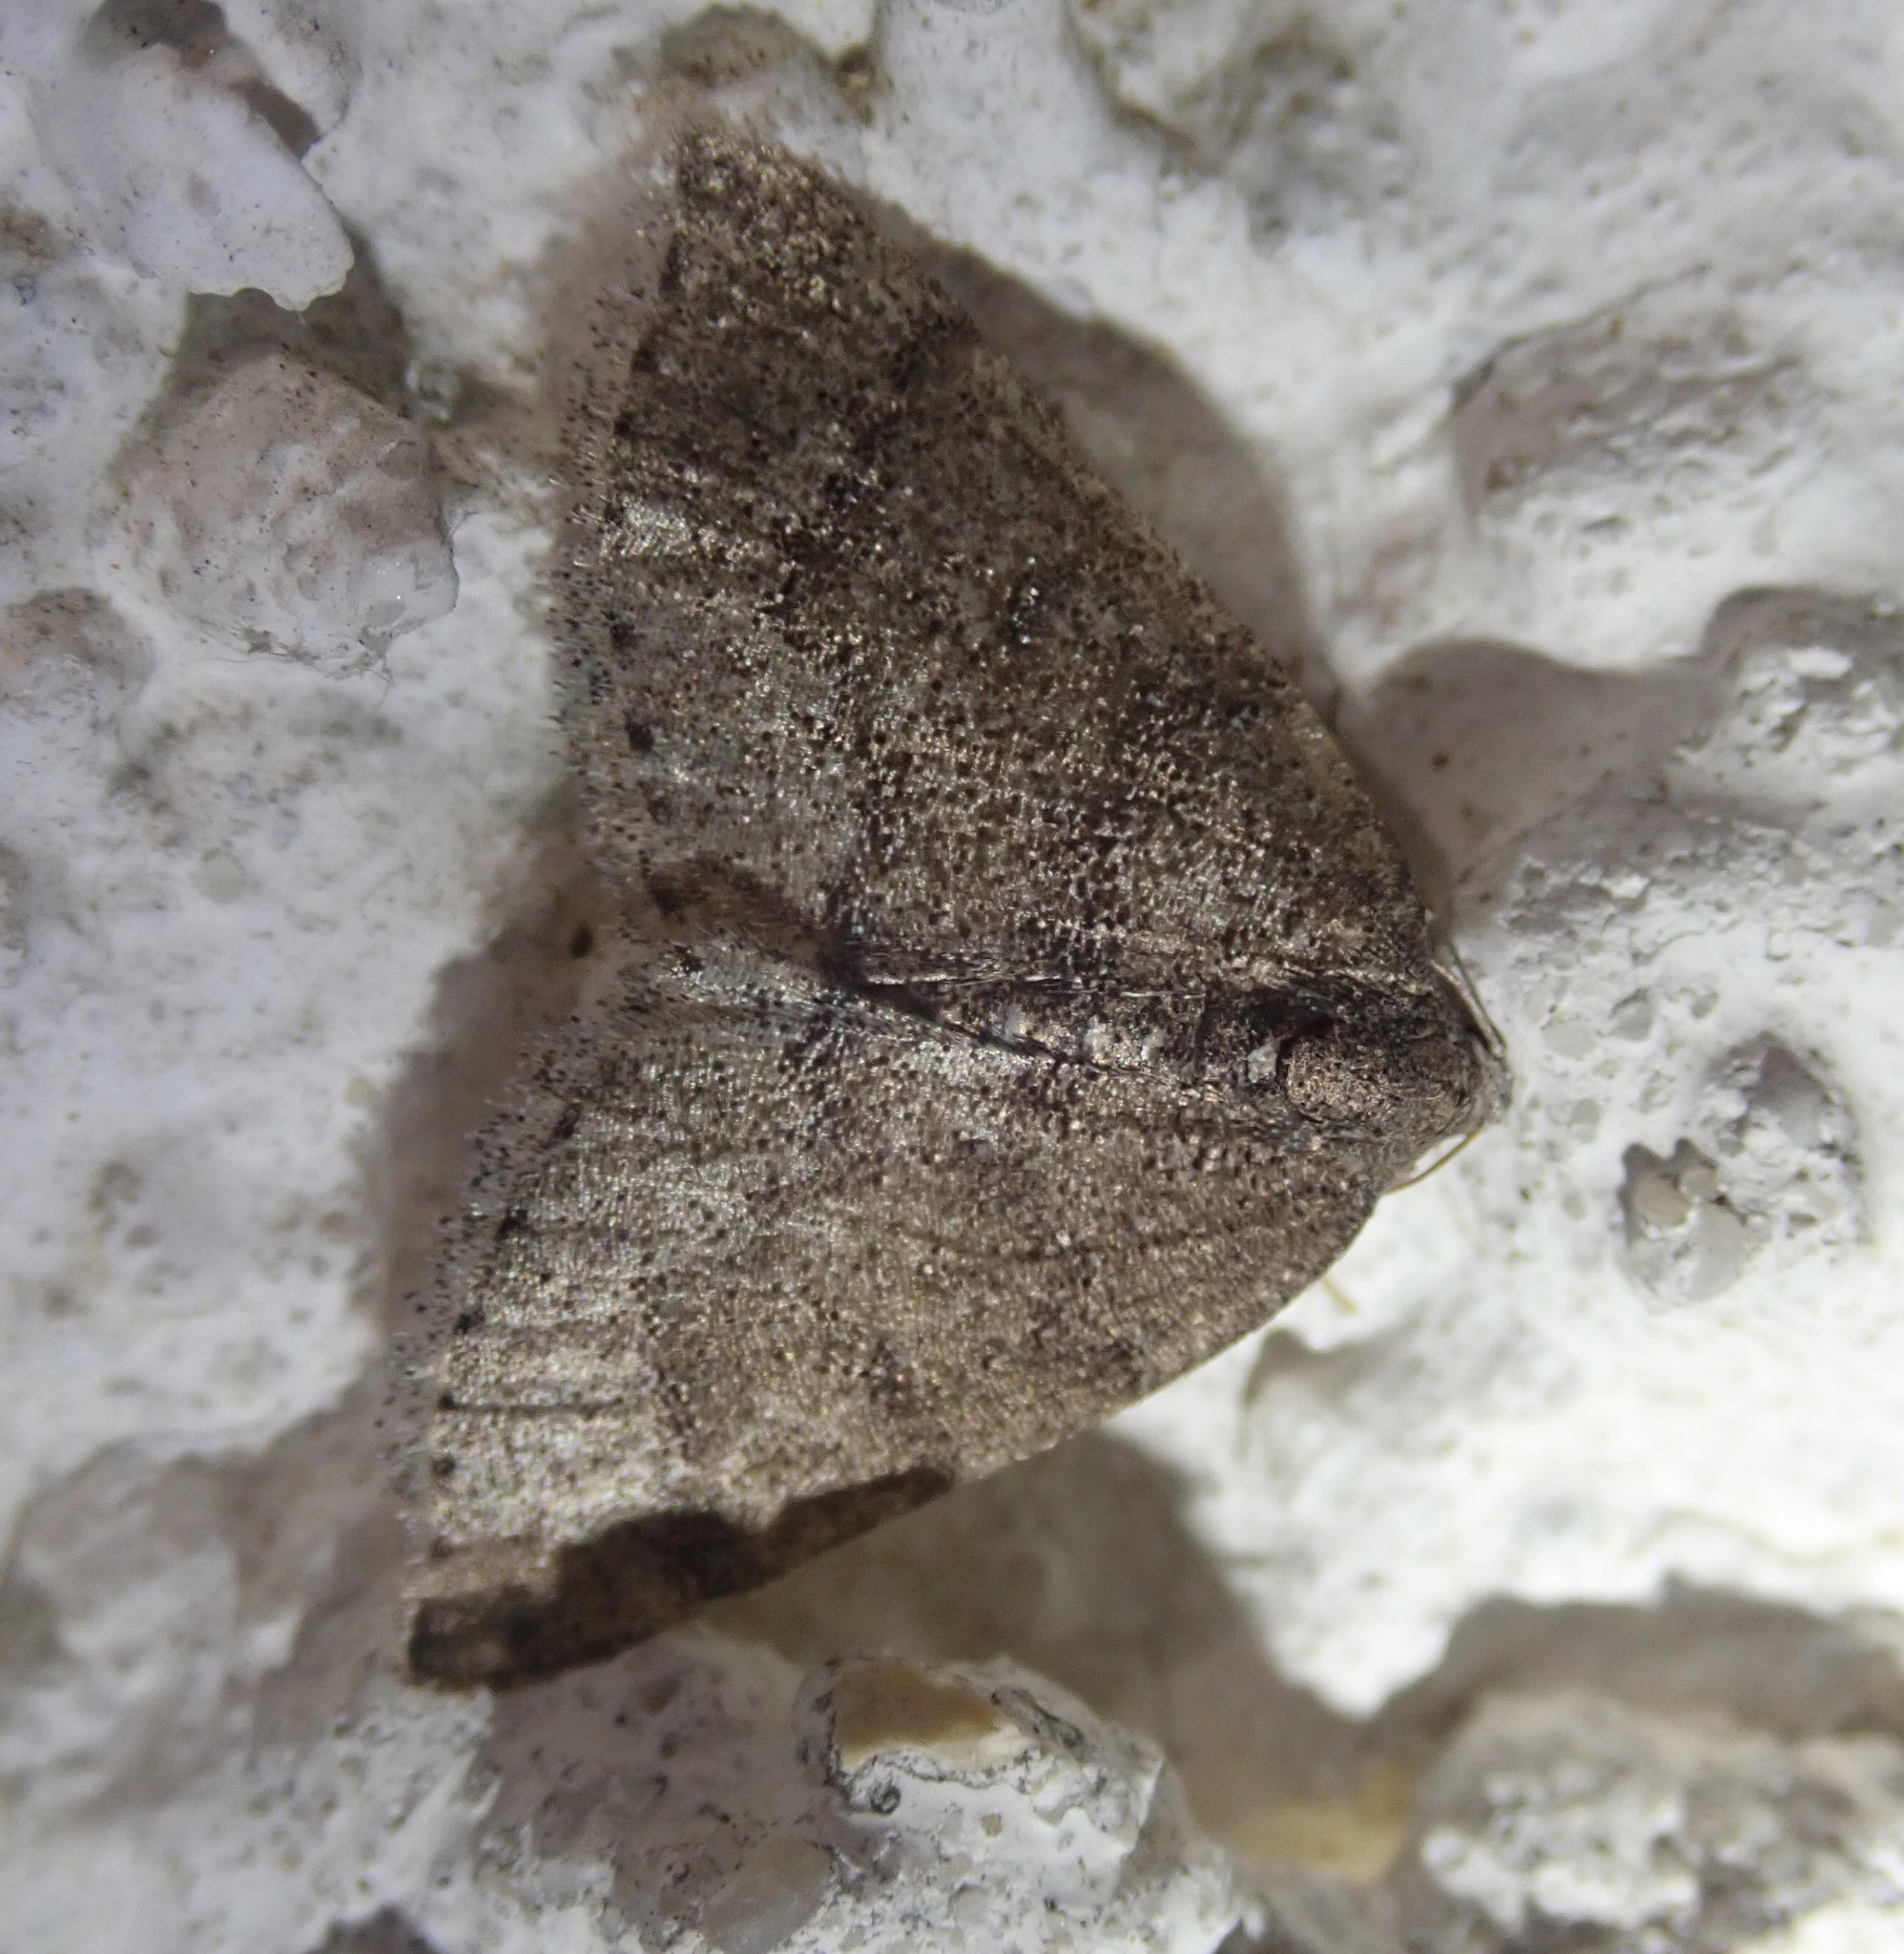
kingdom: Animalia
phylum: Arthropoda
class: Insecta
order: Lepidoptera
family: Geometridae
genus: Aleucis
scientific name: Aleucis distinctata
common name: Sloe carpet
